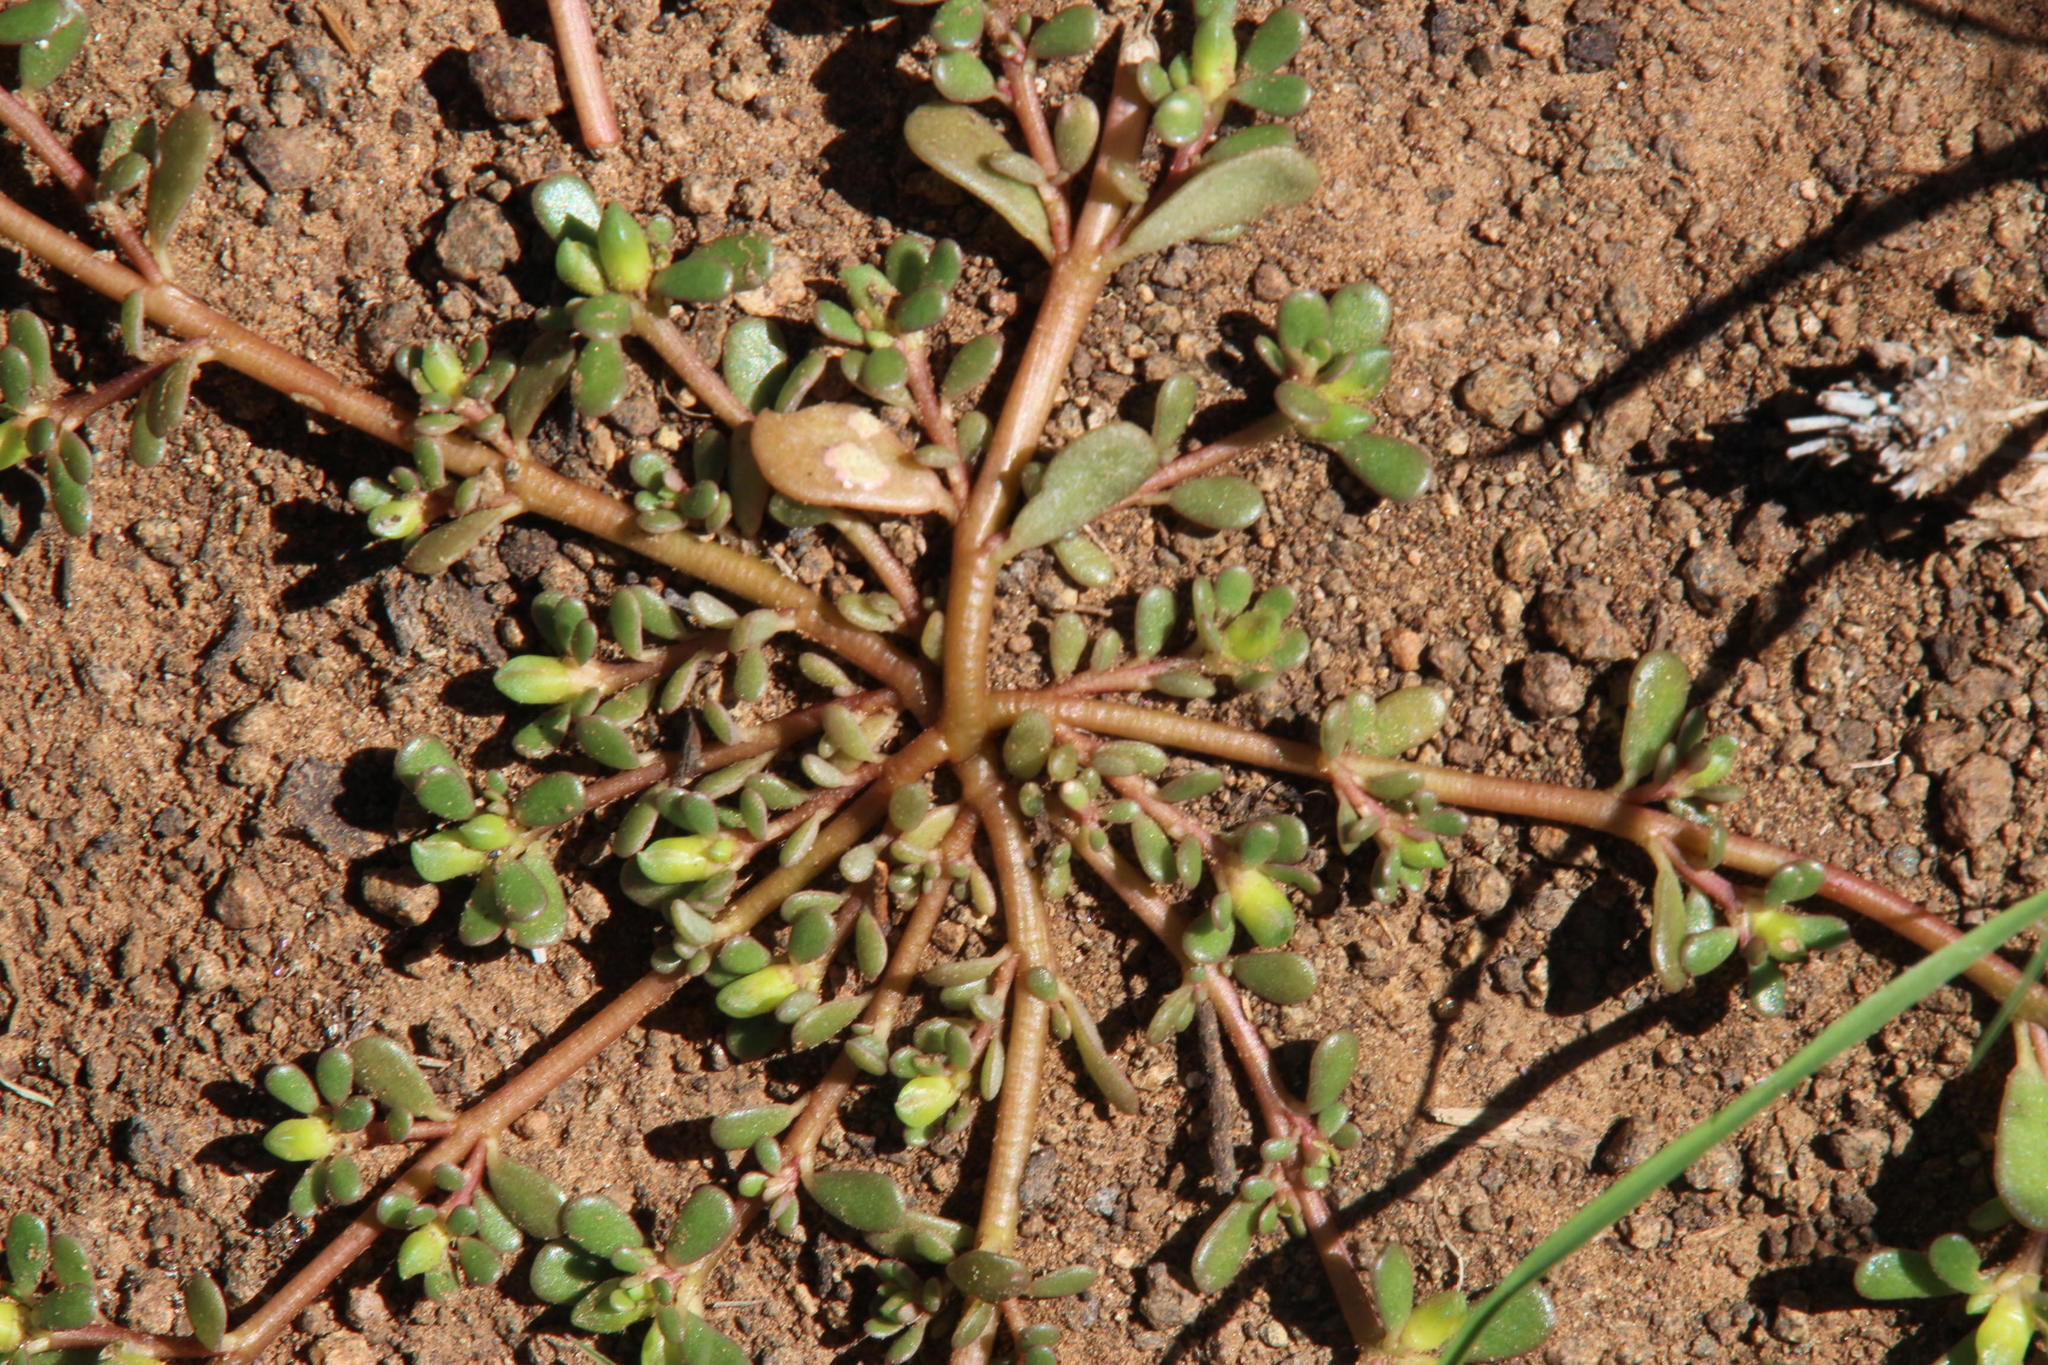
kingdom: Plantae
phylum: Tracheophyta
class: Magnoliopsida
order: Caryophyllales
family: Portulacaceae
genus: Portulaca
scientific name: Portulaca oleracea
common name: Common purslane
